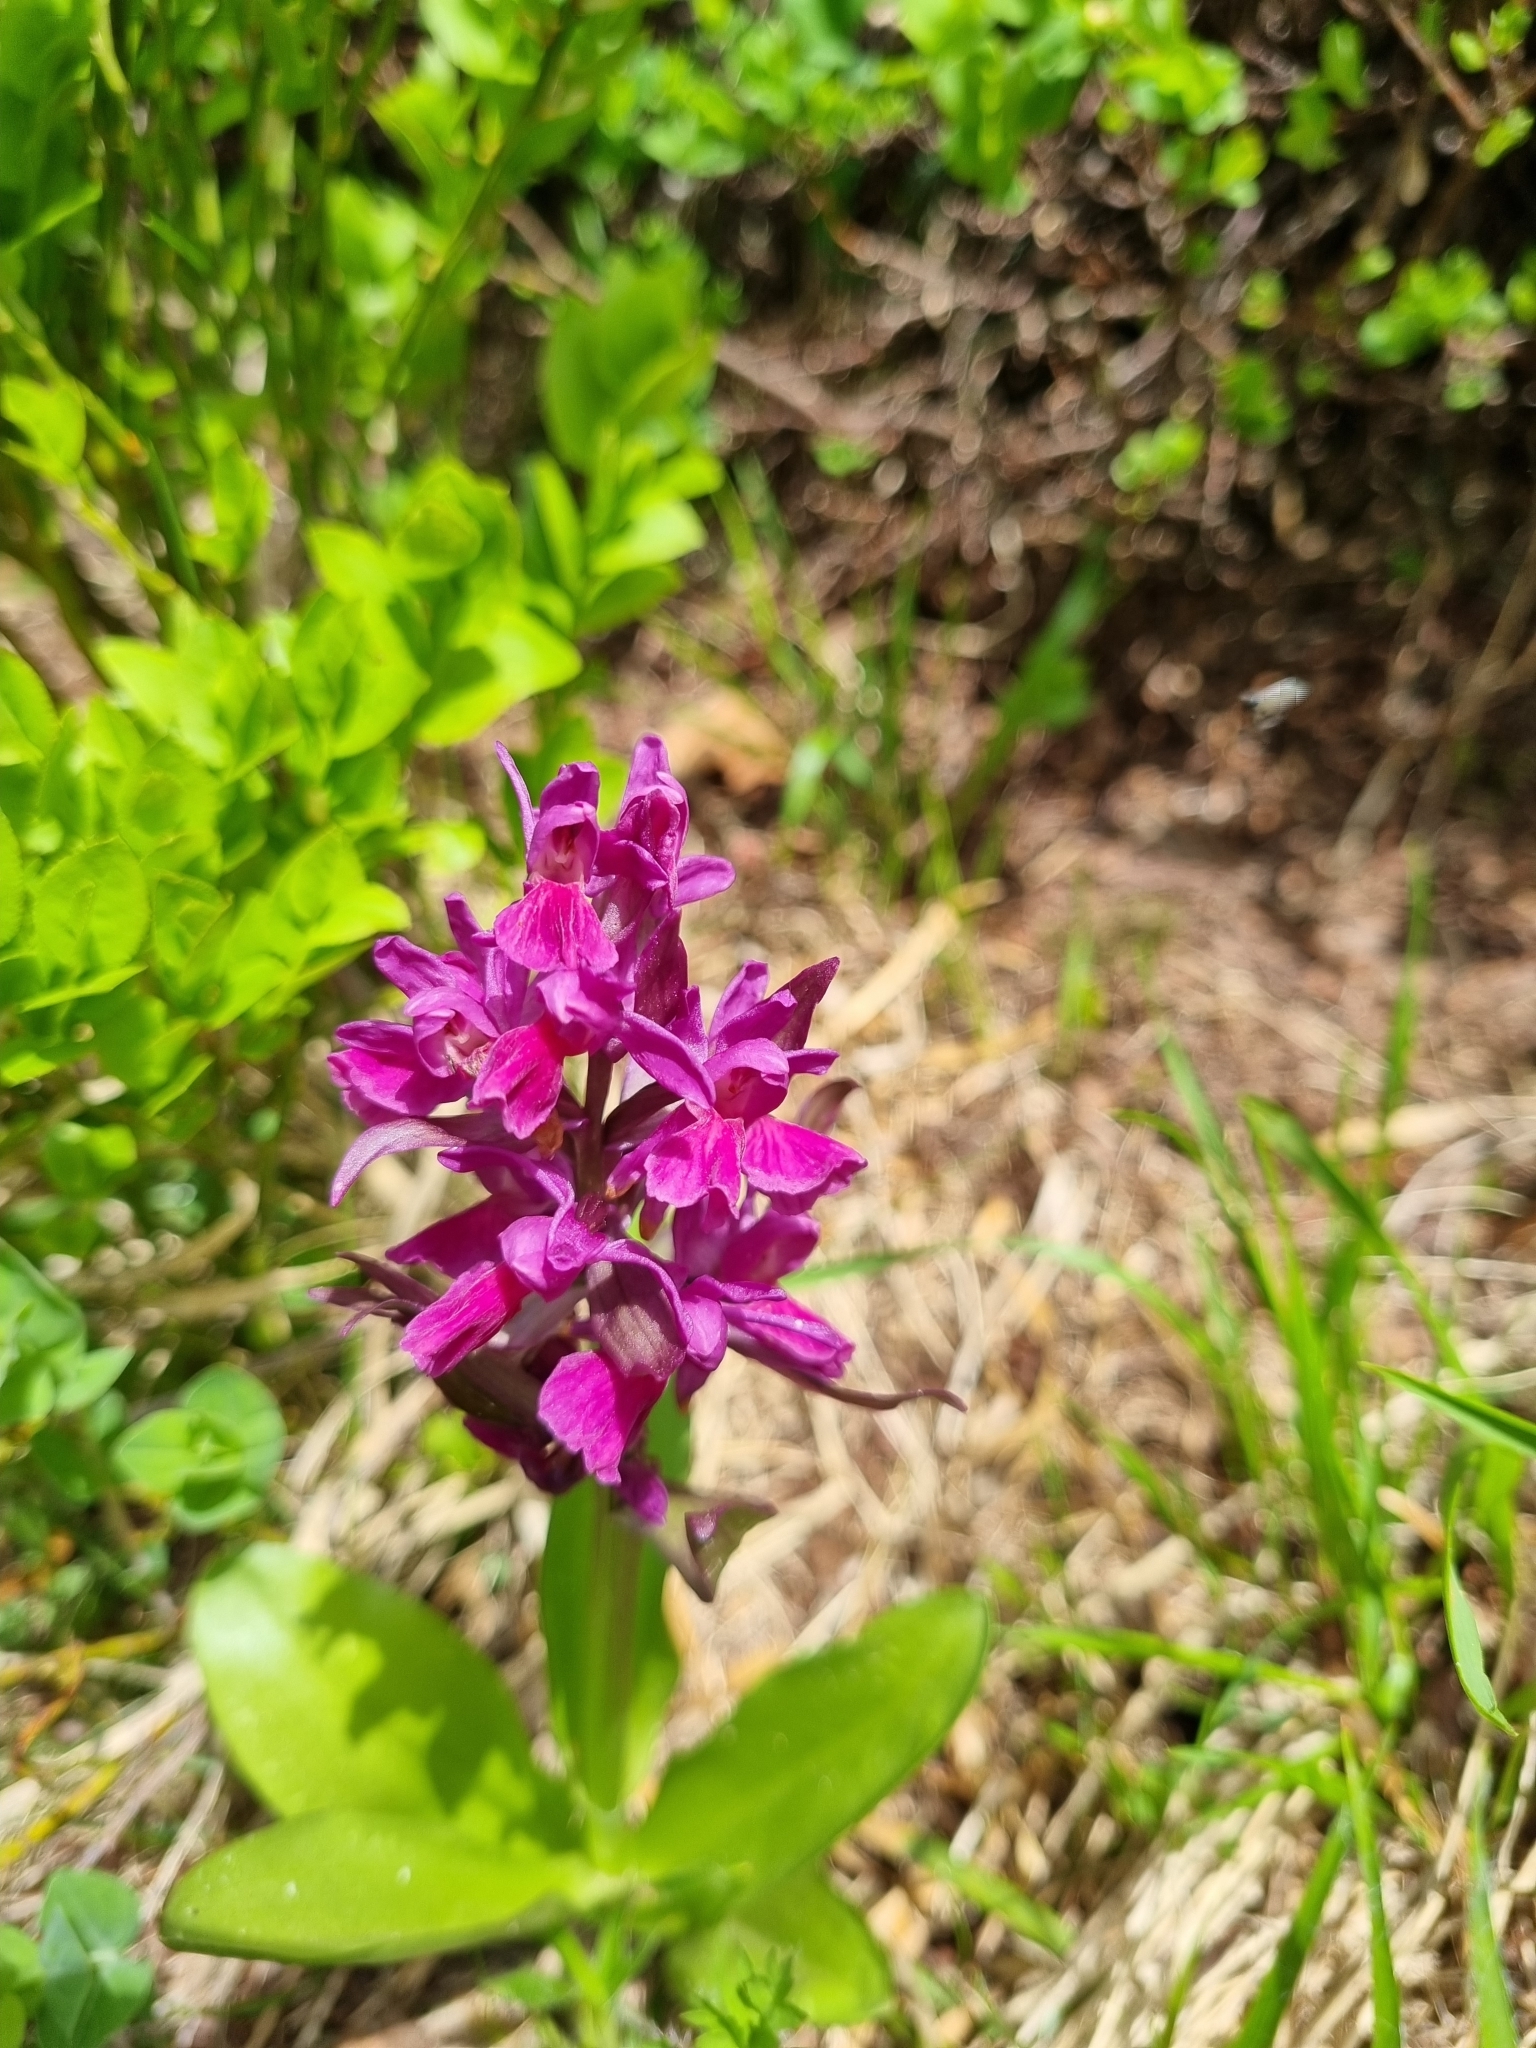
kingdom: Plantae
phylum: Tracheophyta
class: Liliopsida
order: Asparagales
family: Orchidaceae
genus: Dactylorhiza
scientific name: Dactylorhiza sambucina
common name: Elder-flowered orchid
